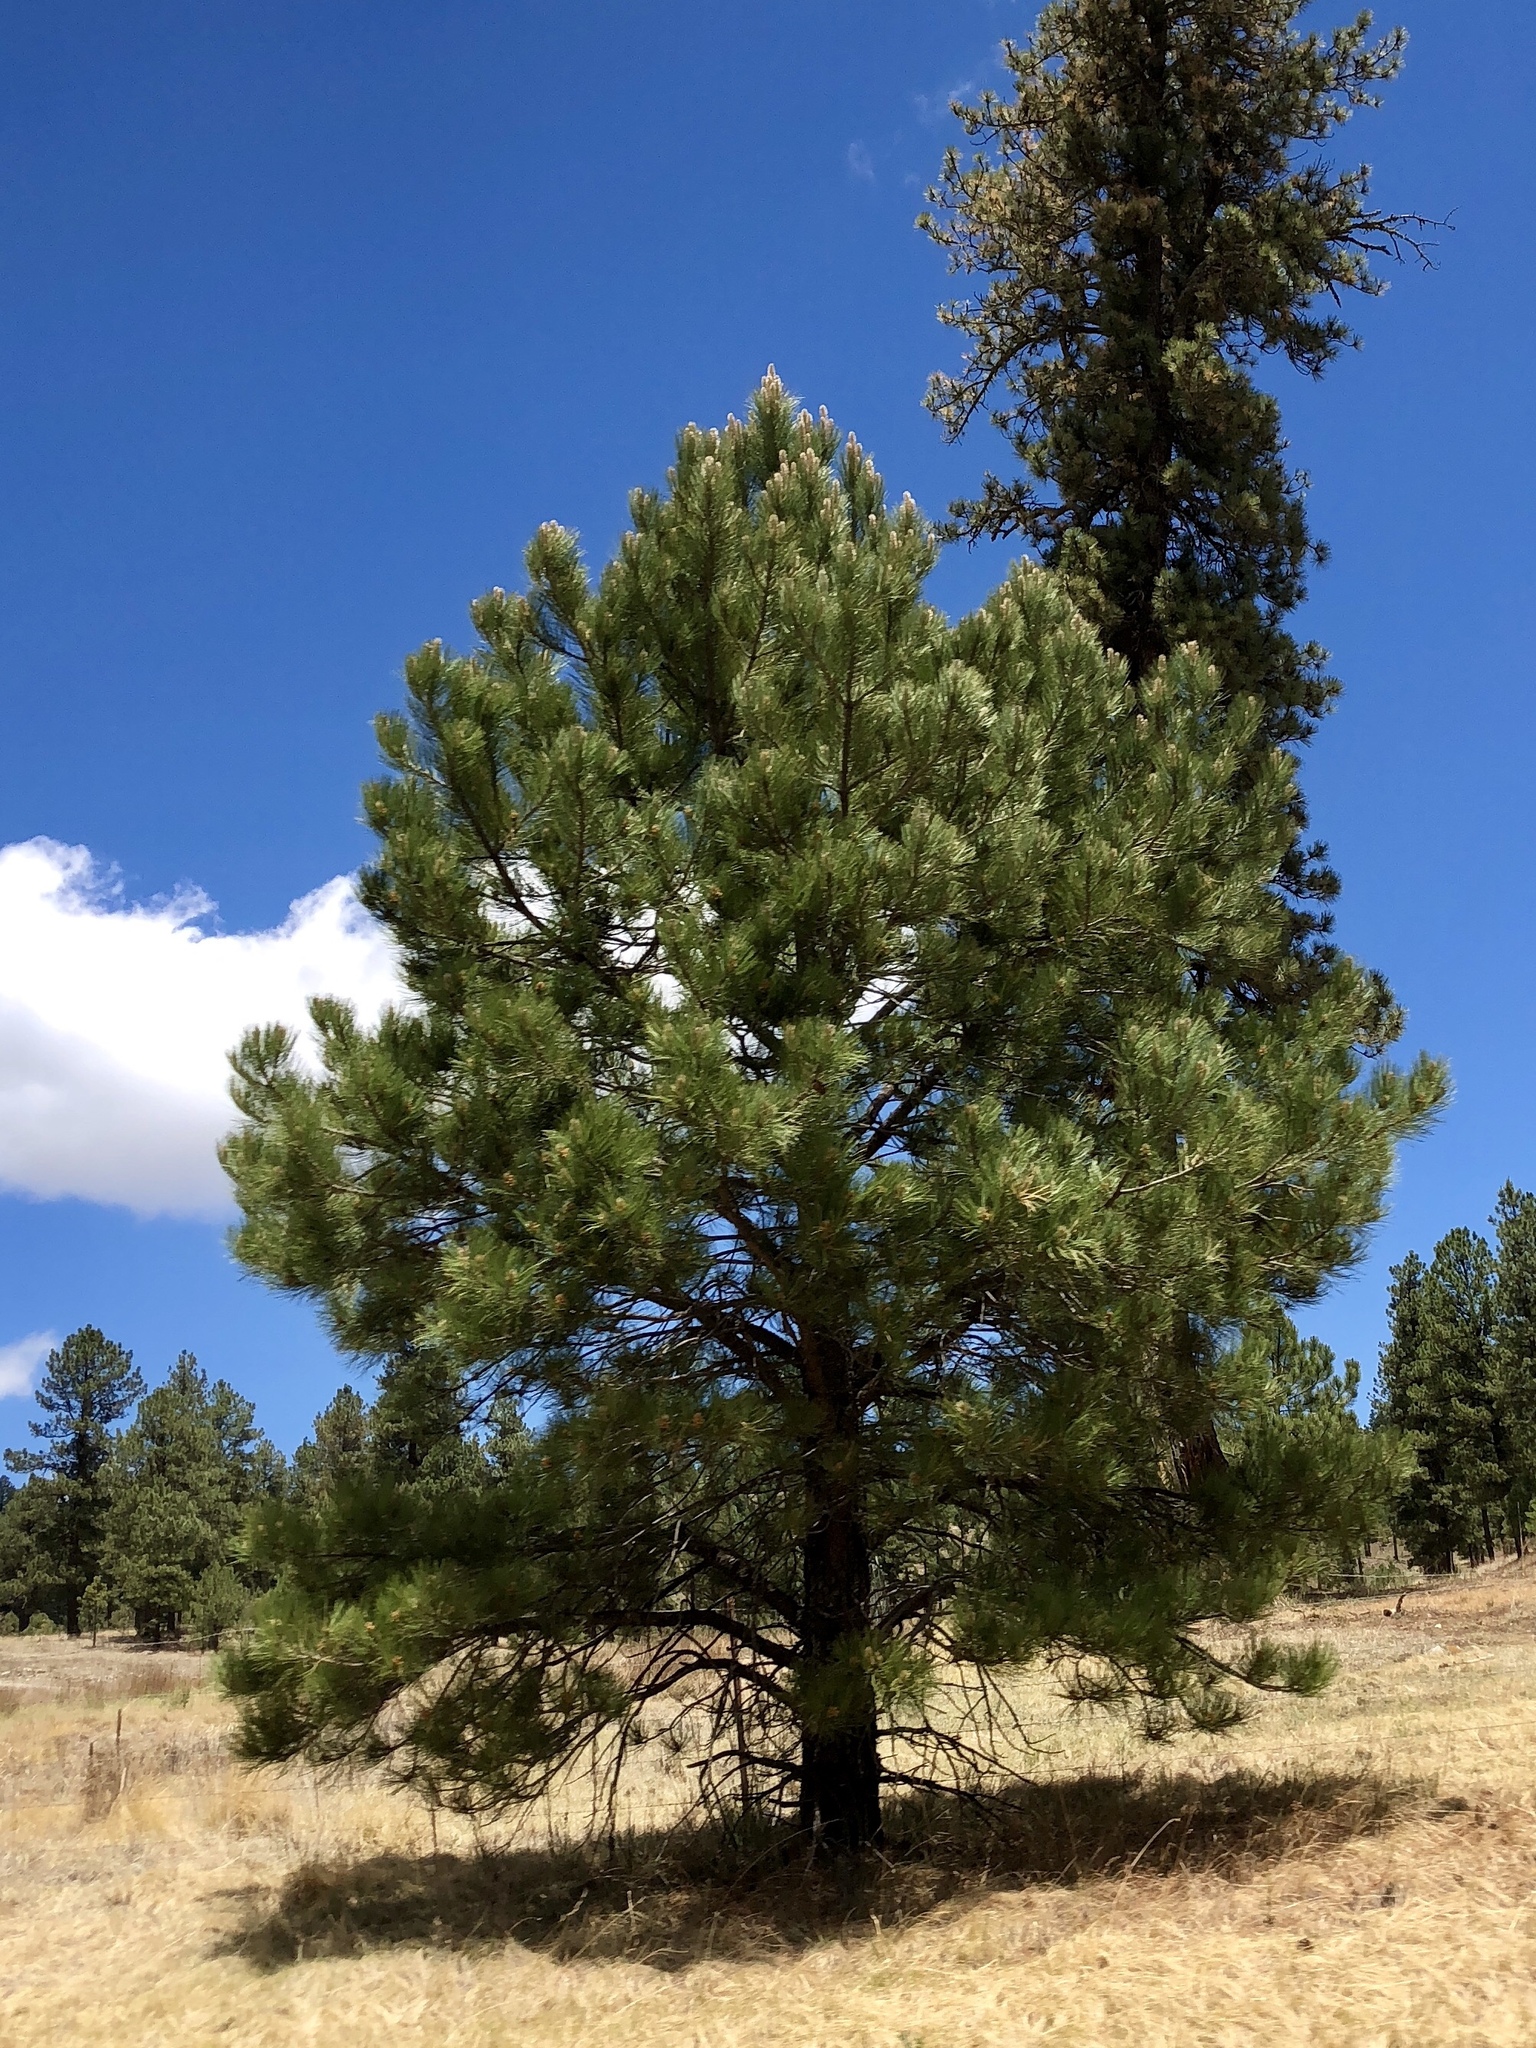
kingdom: Plantae
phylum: Tracheophyta
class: Pinopsida
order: Pinales
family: Pinaceae
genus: Pinus
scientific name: Pinus ponderosa
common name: Western yellow-pine
